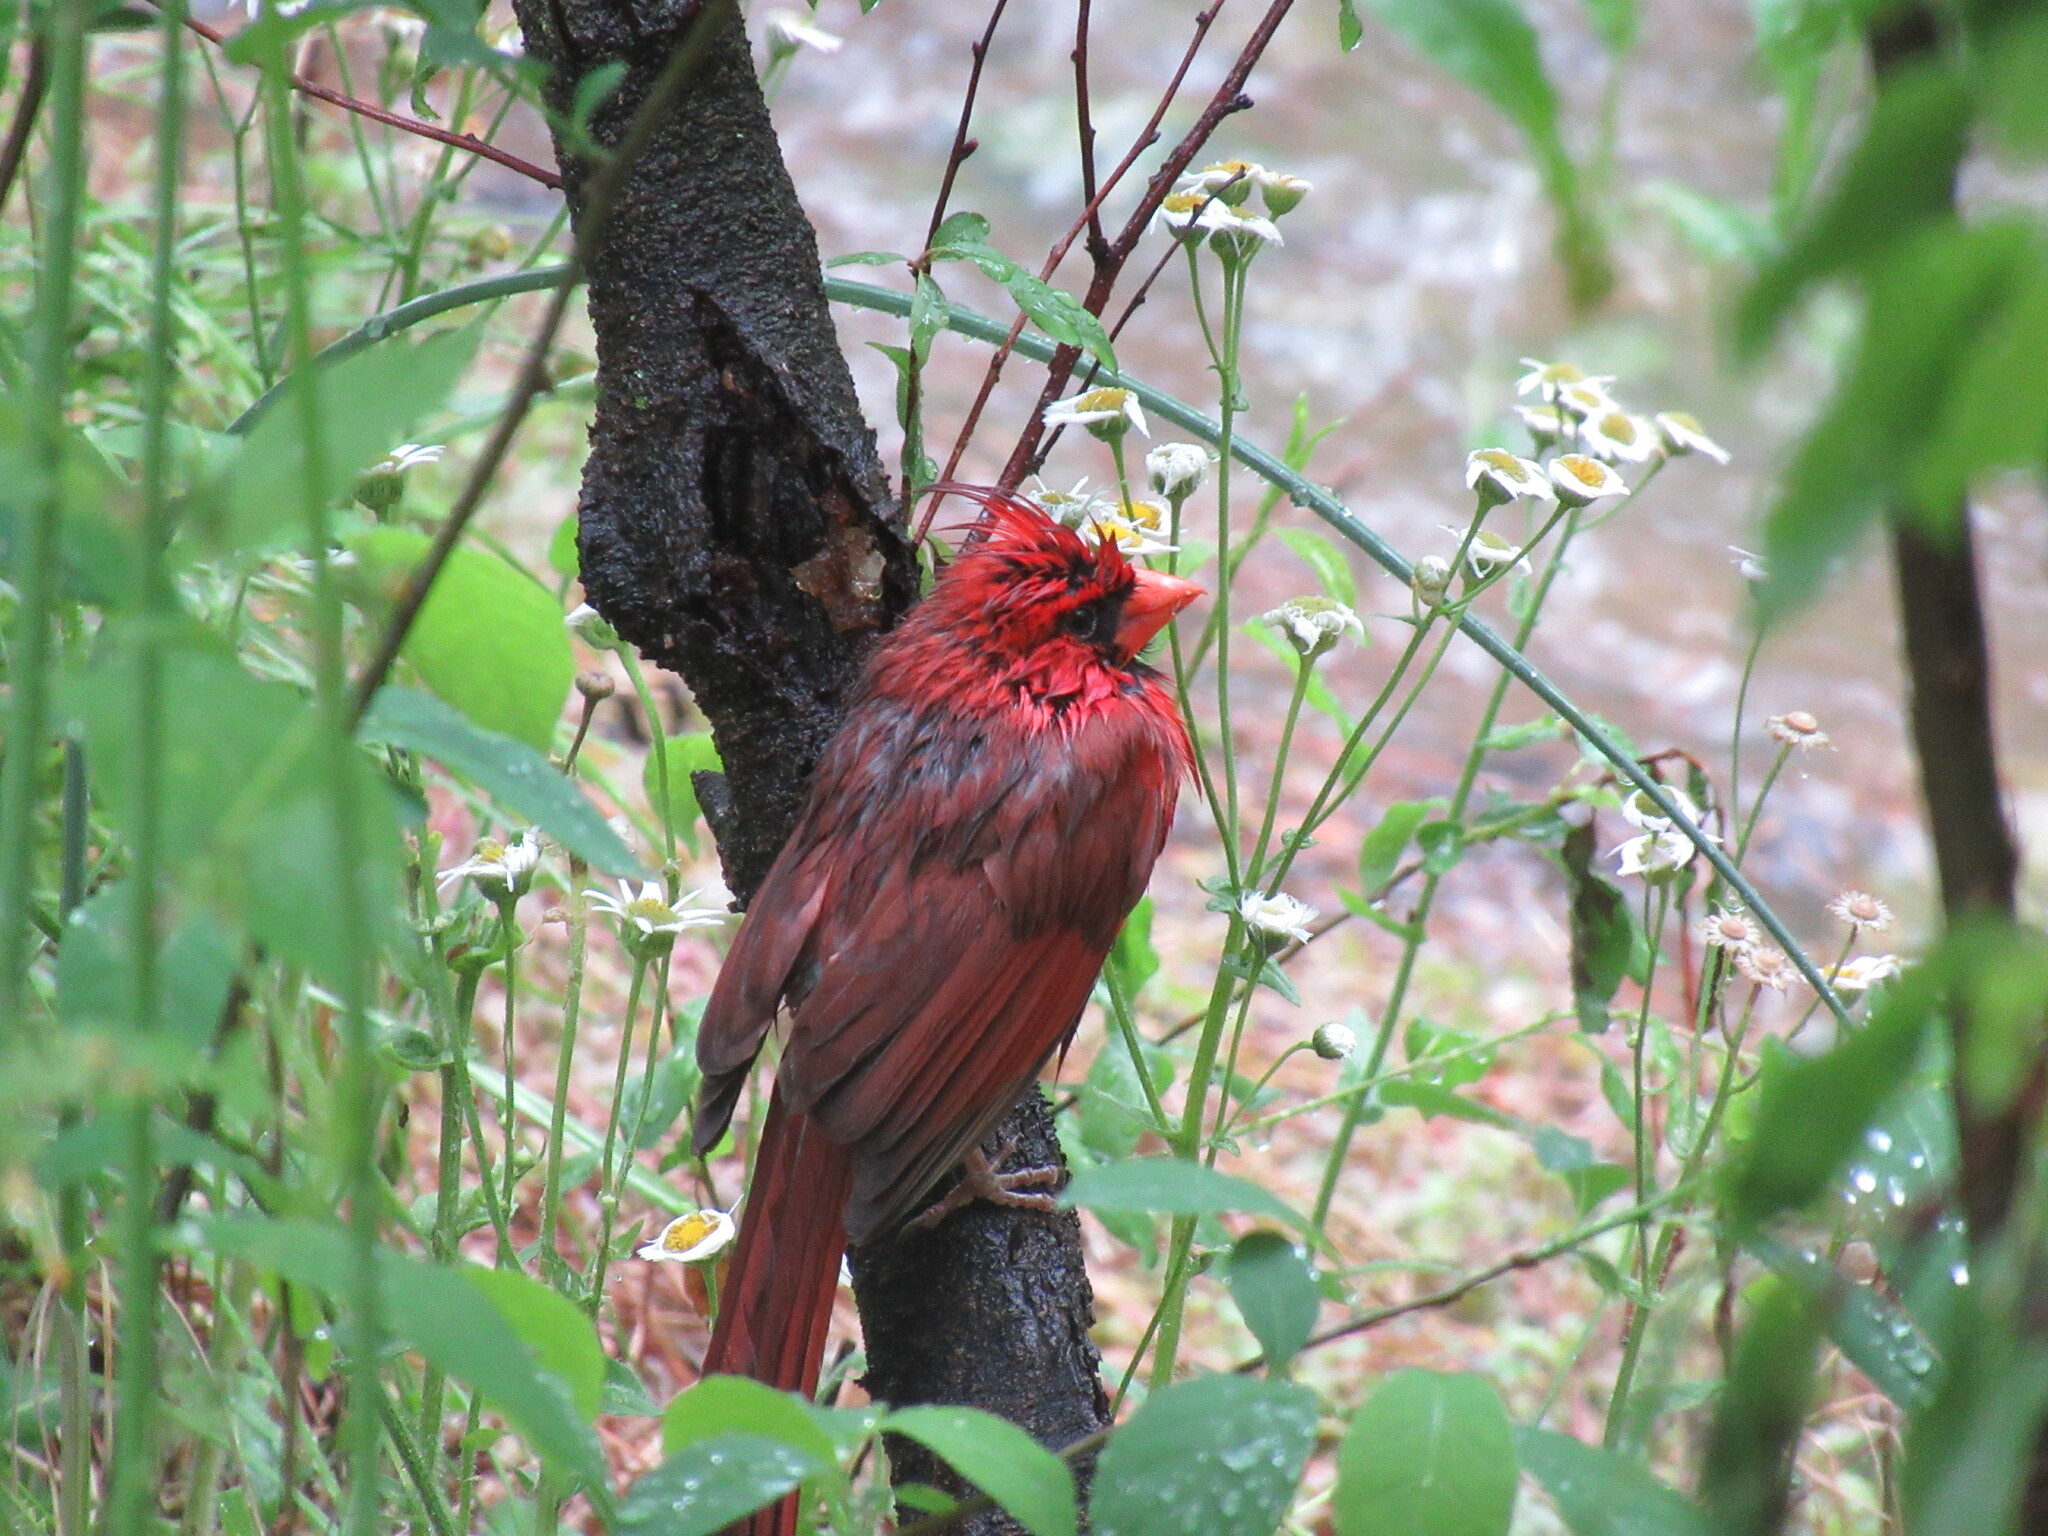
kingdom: Animalia
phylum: Chordata
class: Aves
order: Passeriformes
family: Cardinalidae
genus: Cardinalis
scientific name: Cardinalis cardinalis
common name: Northern cardinal
